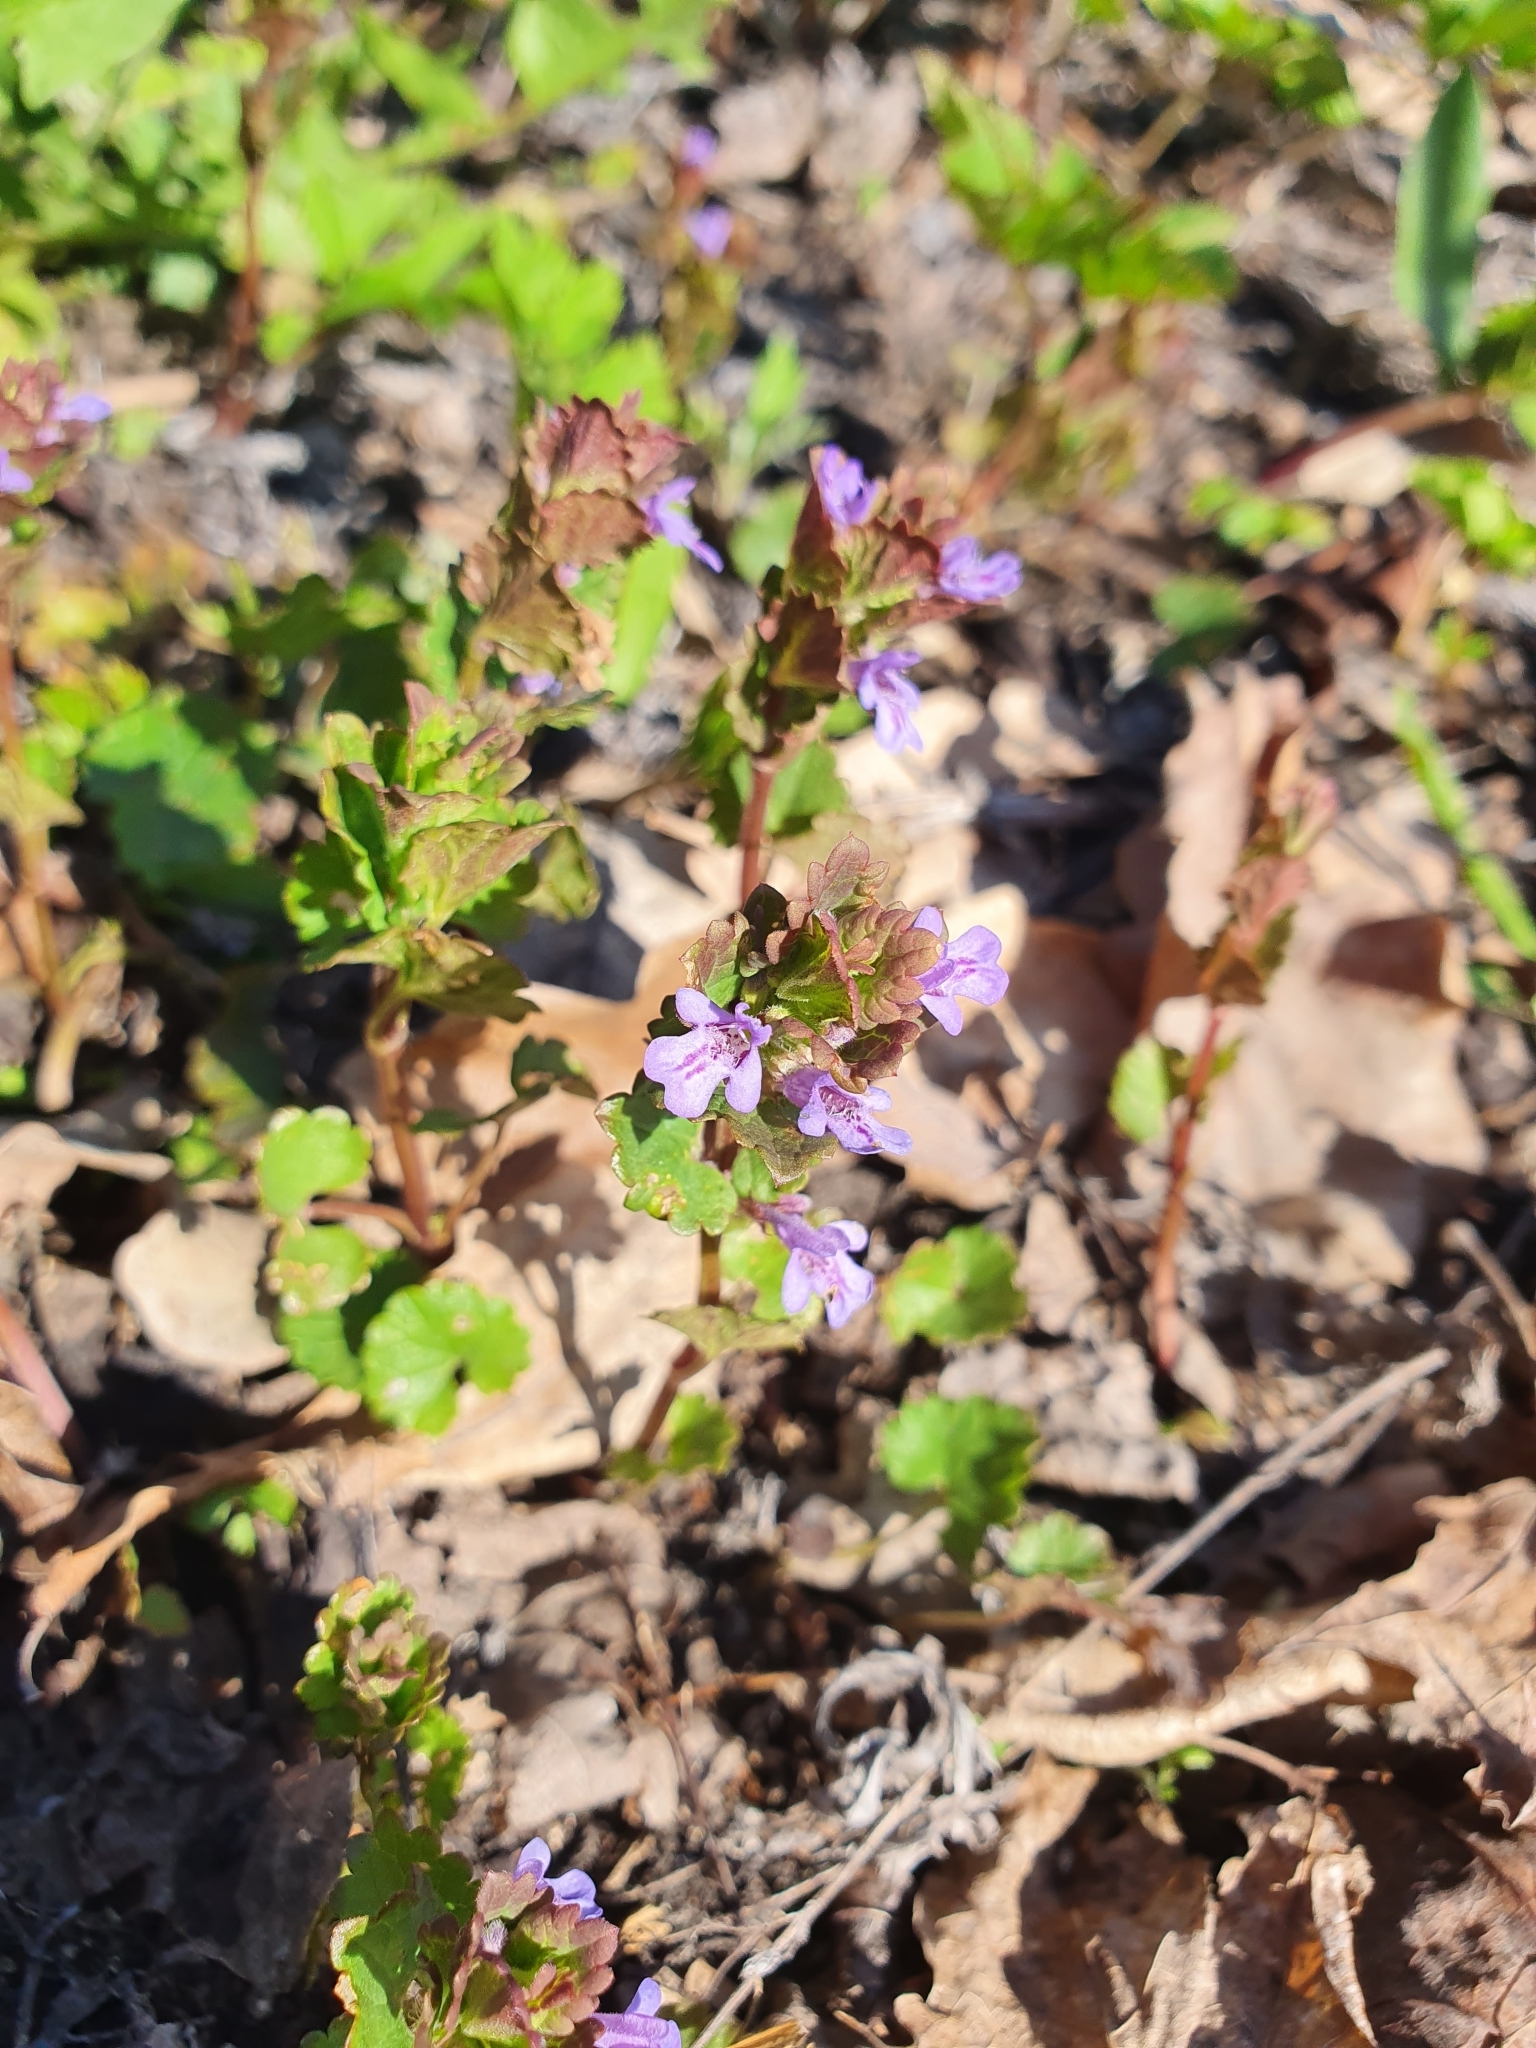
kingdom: Plantae
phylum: Tracheophyta
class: Magnoliopsida
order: Lamiales
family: Lamiaceae
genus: Glechoma
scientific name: Glechoma hederacea
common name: Ground ivy
